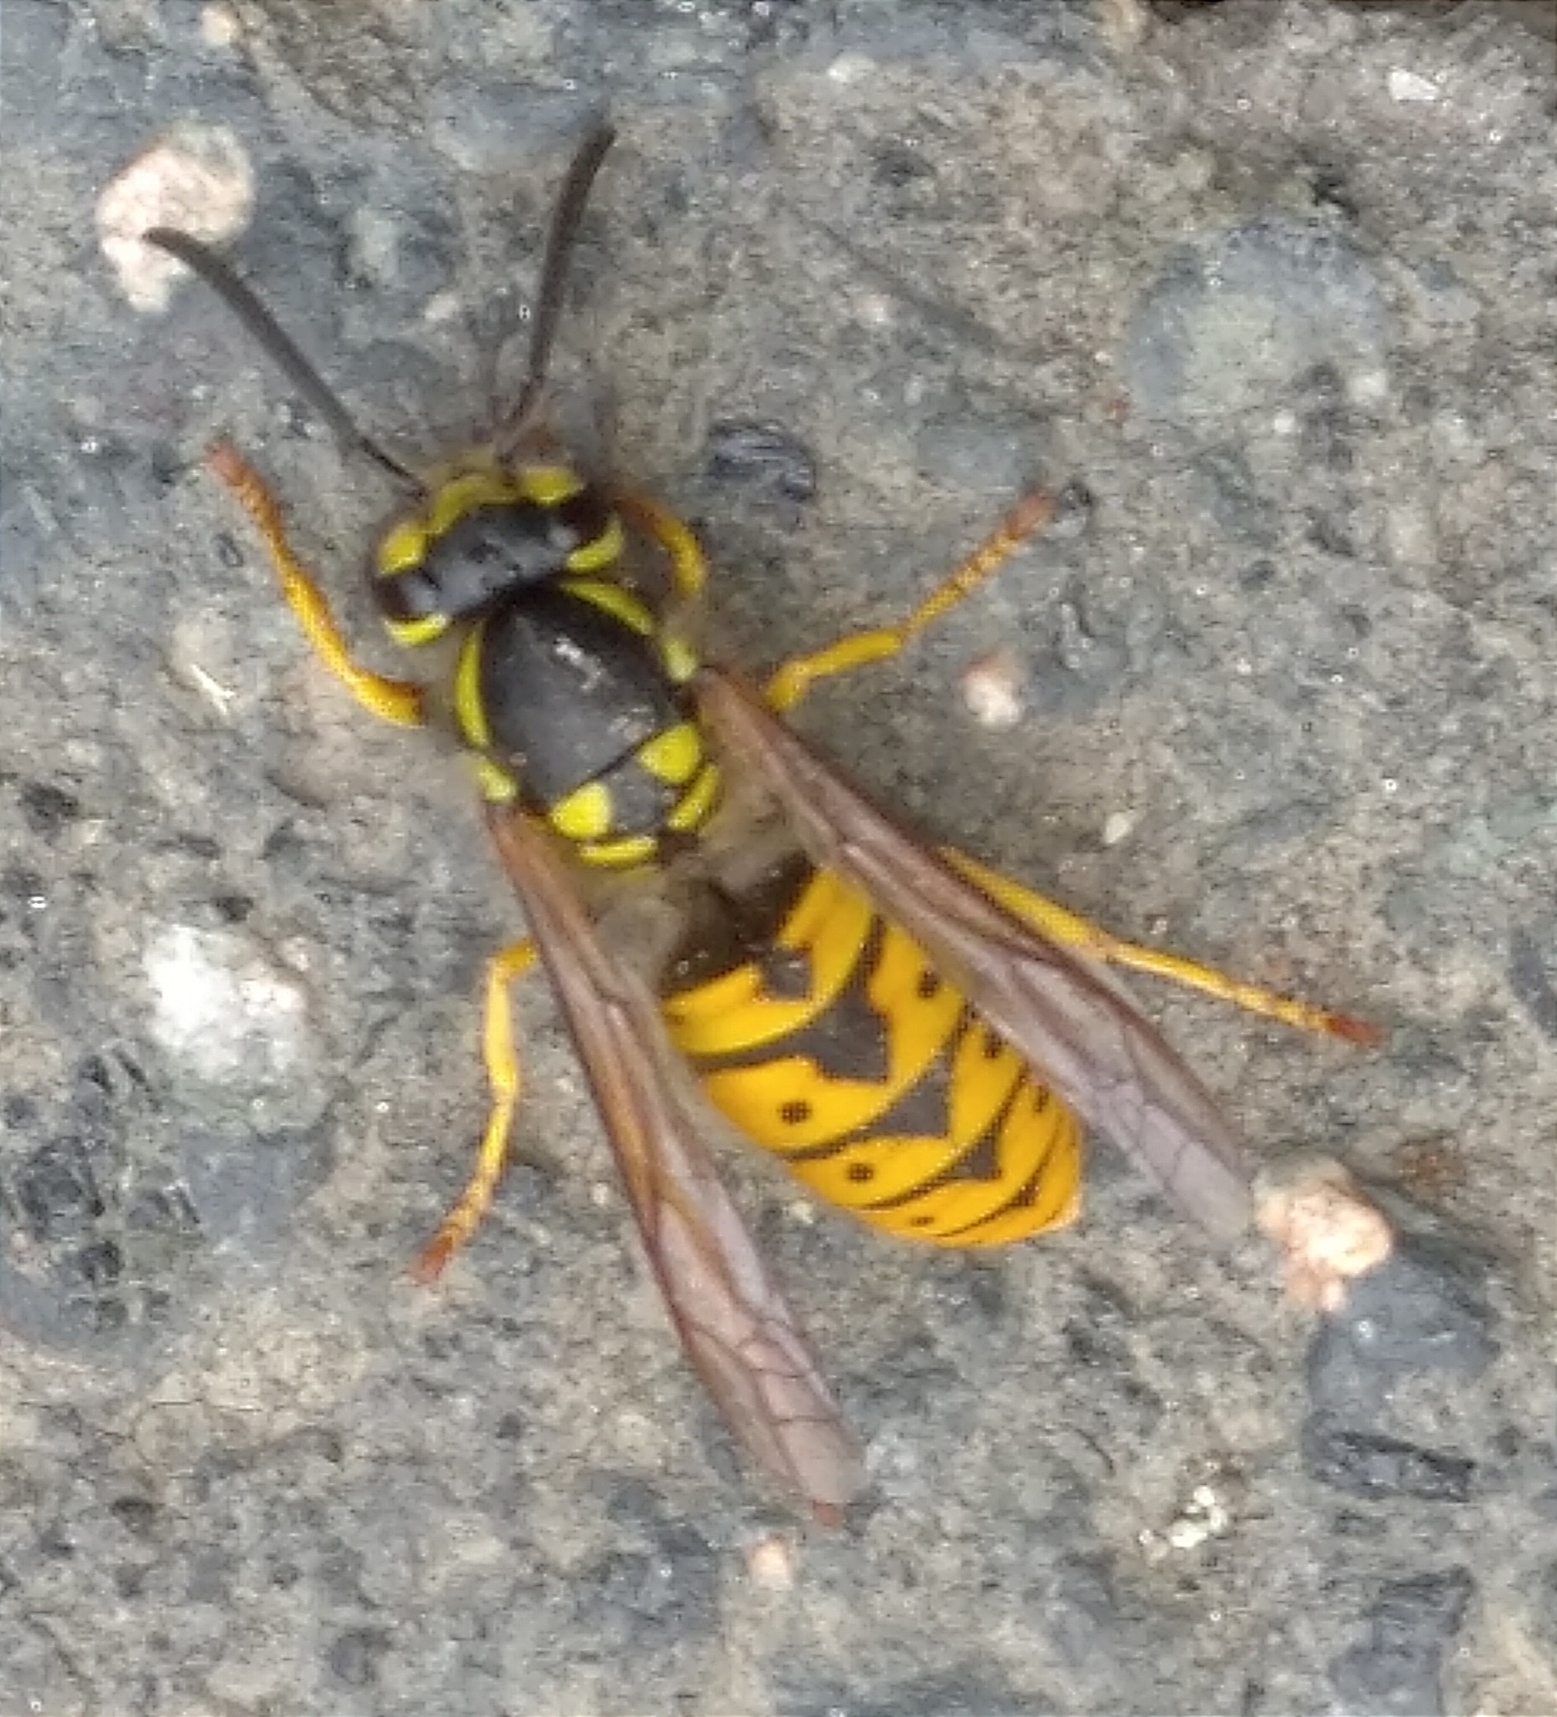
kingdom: Animalia
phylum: Arthropoda
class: Insecta
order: Hymenoptera
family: Vespidae
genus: Vespula
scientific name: Vespula germanica
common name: German wasp
